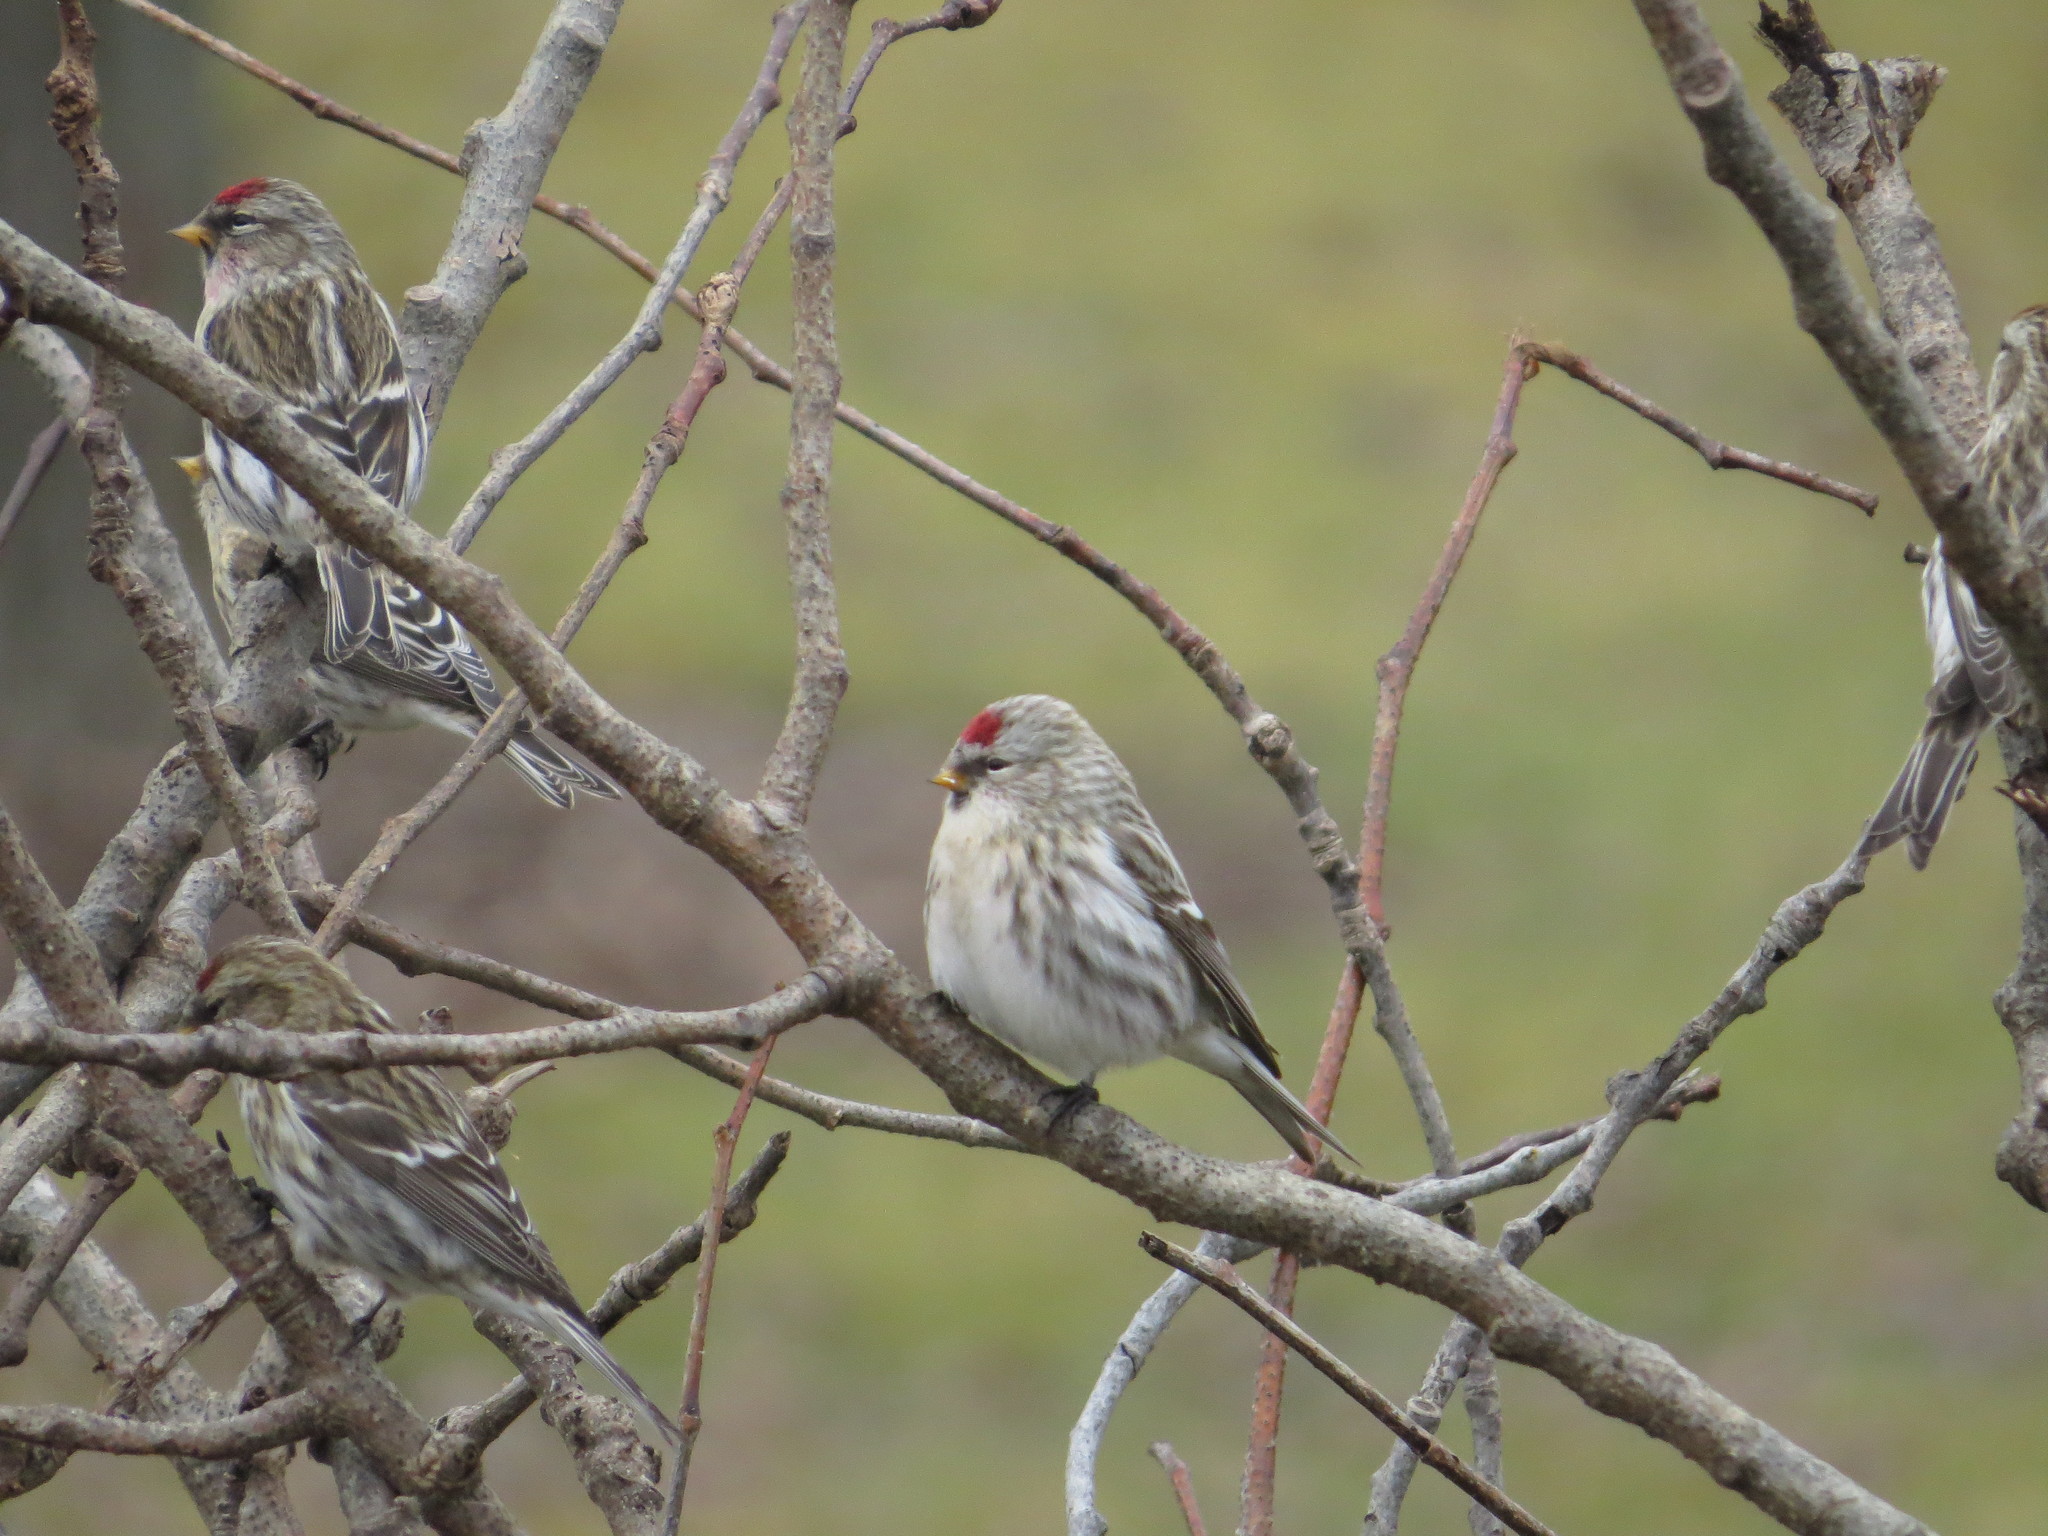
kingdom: Animalia
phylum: Chordata
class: Aves
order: Passeriformes
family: Fringillidae
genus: Acanthis
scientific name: Acanthis hornemanni
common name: Arctic redpoll
